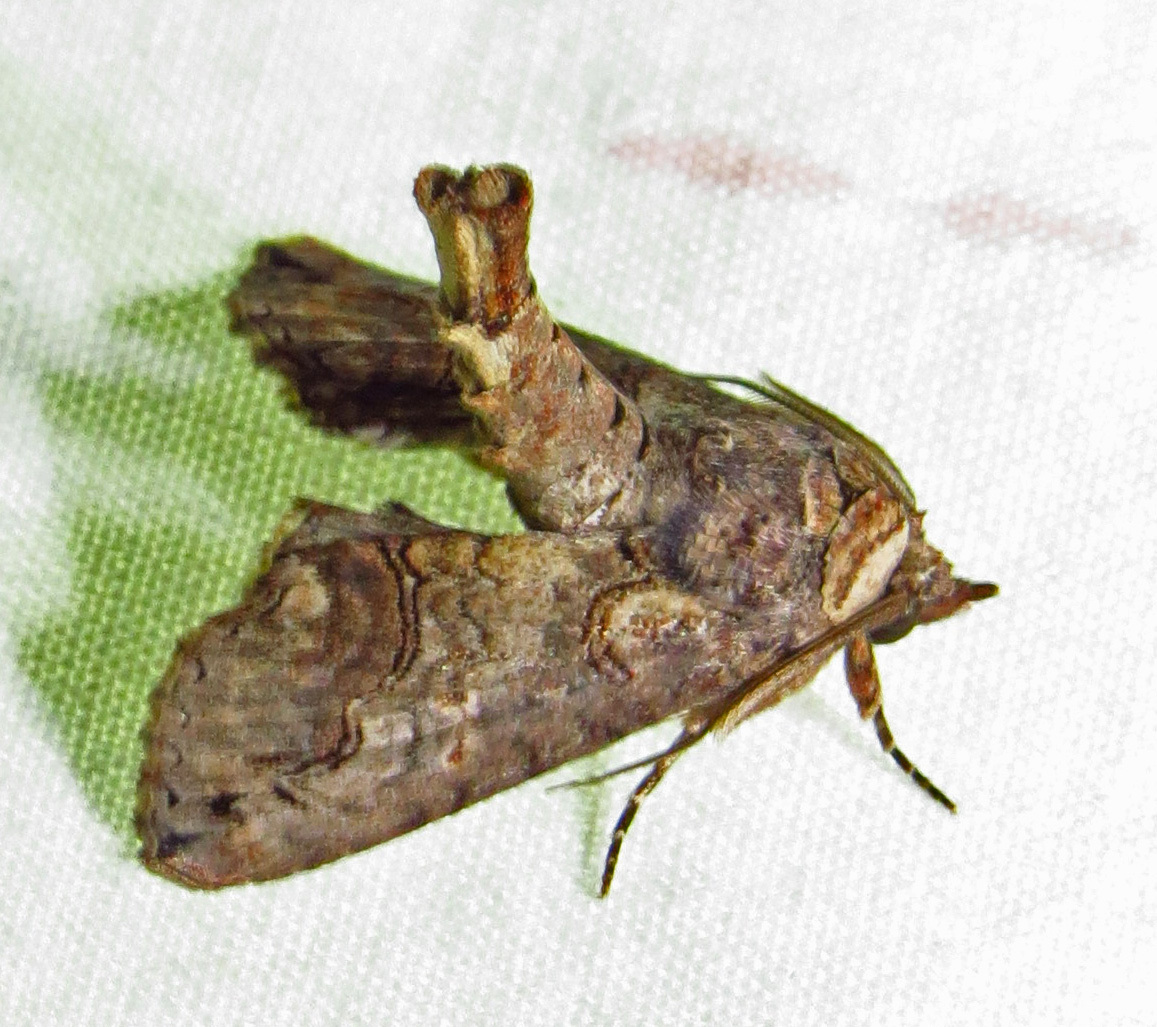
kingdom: Animalia
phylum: Arthropoda
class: Insecta
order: Lepidoptera
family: Euteliidae
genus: Paectes
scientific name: Paectes abrostoloides
